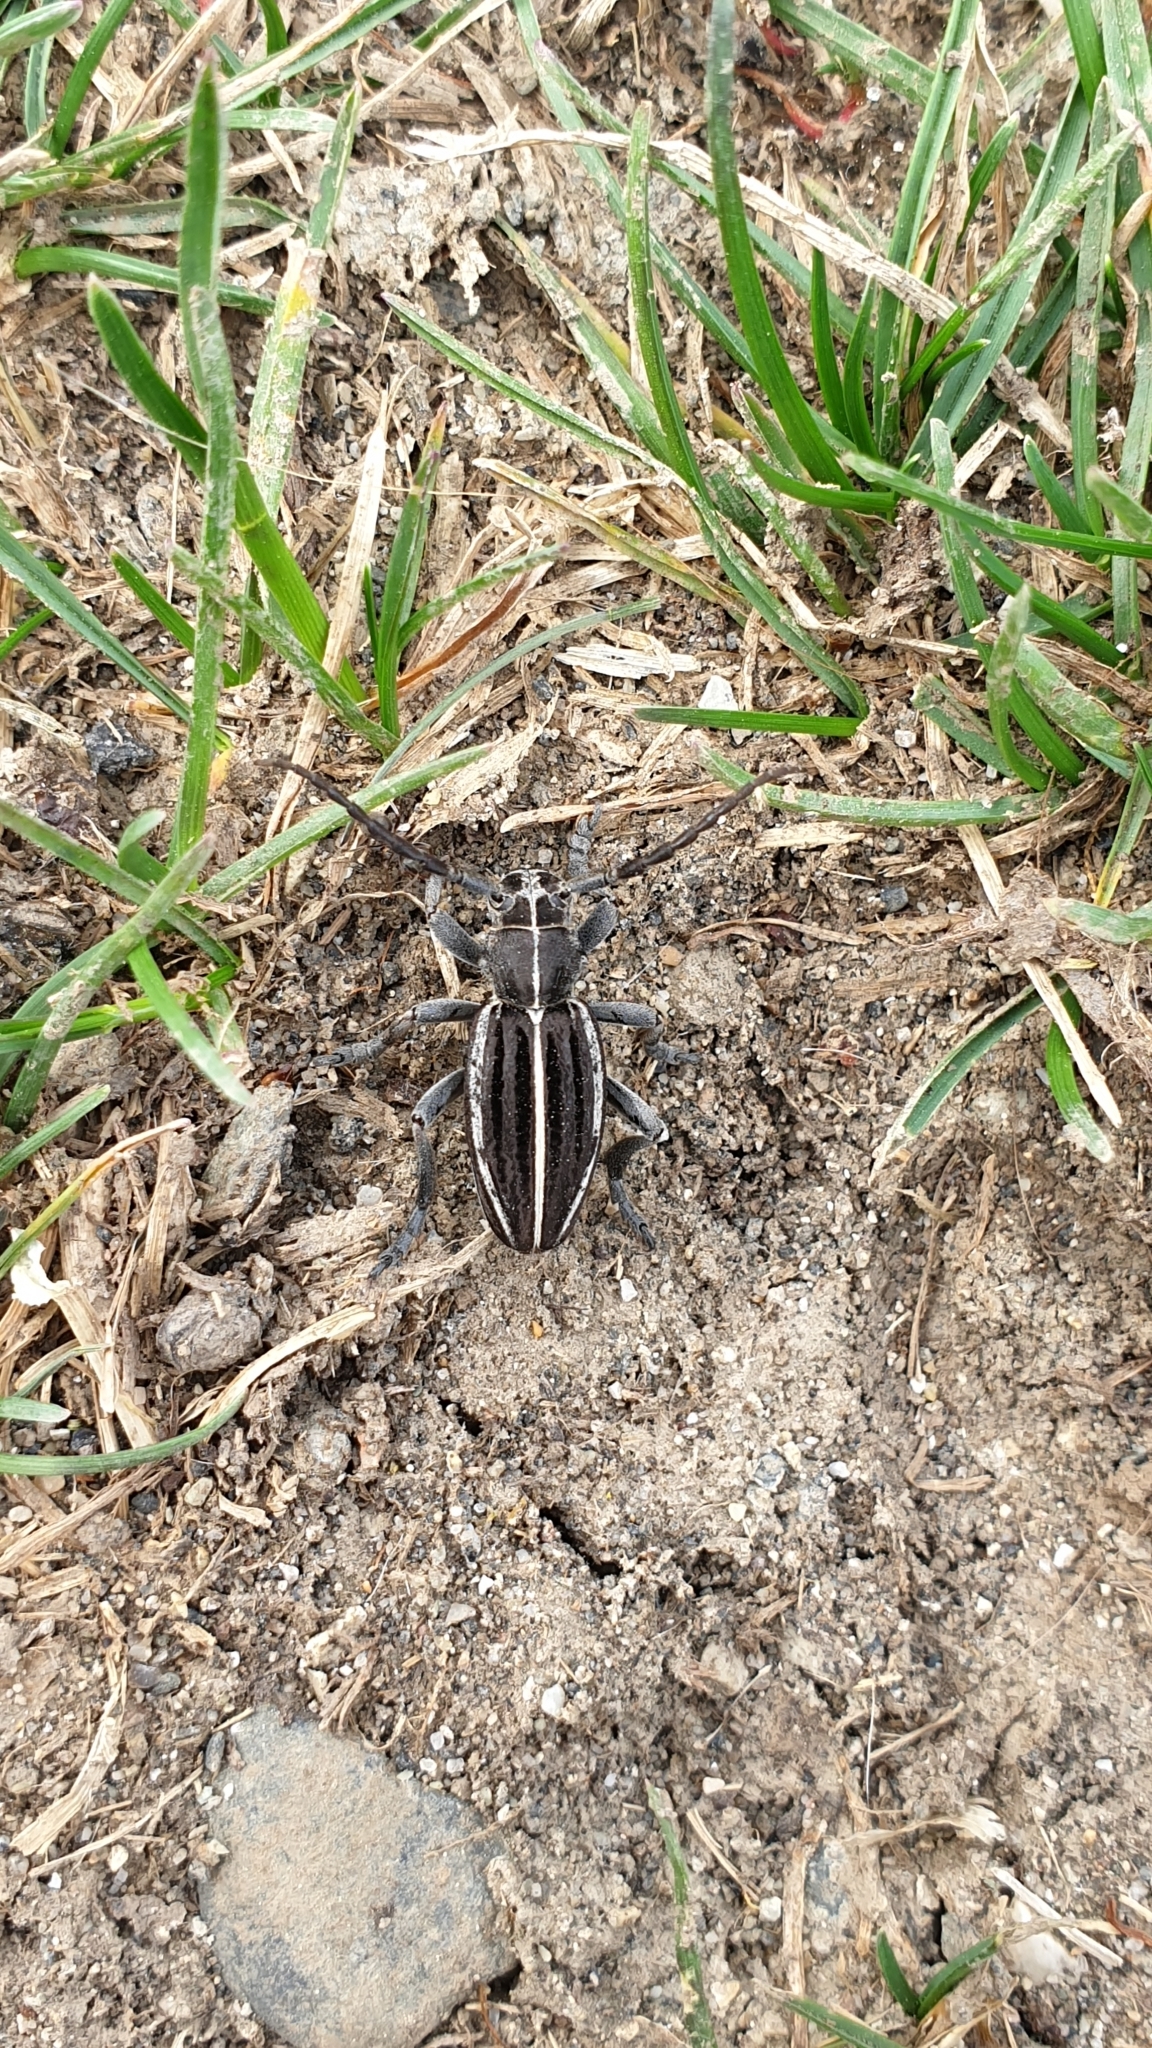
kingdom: Animalia
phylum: Arthropoda
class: Insecta
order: Coleoptera
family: Cerambycidae
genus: Dorcadion
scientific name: Dorcadion holosericeum
